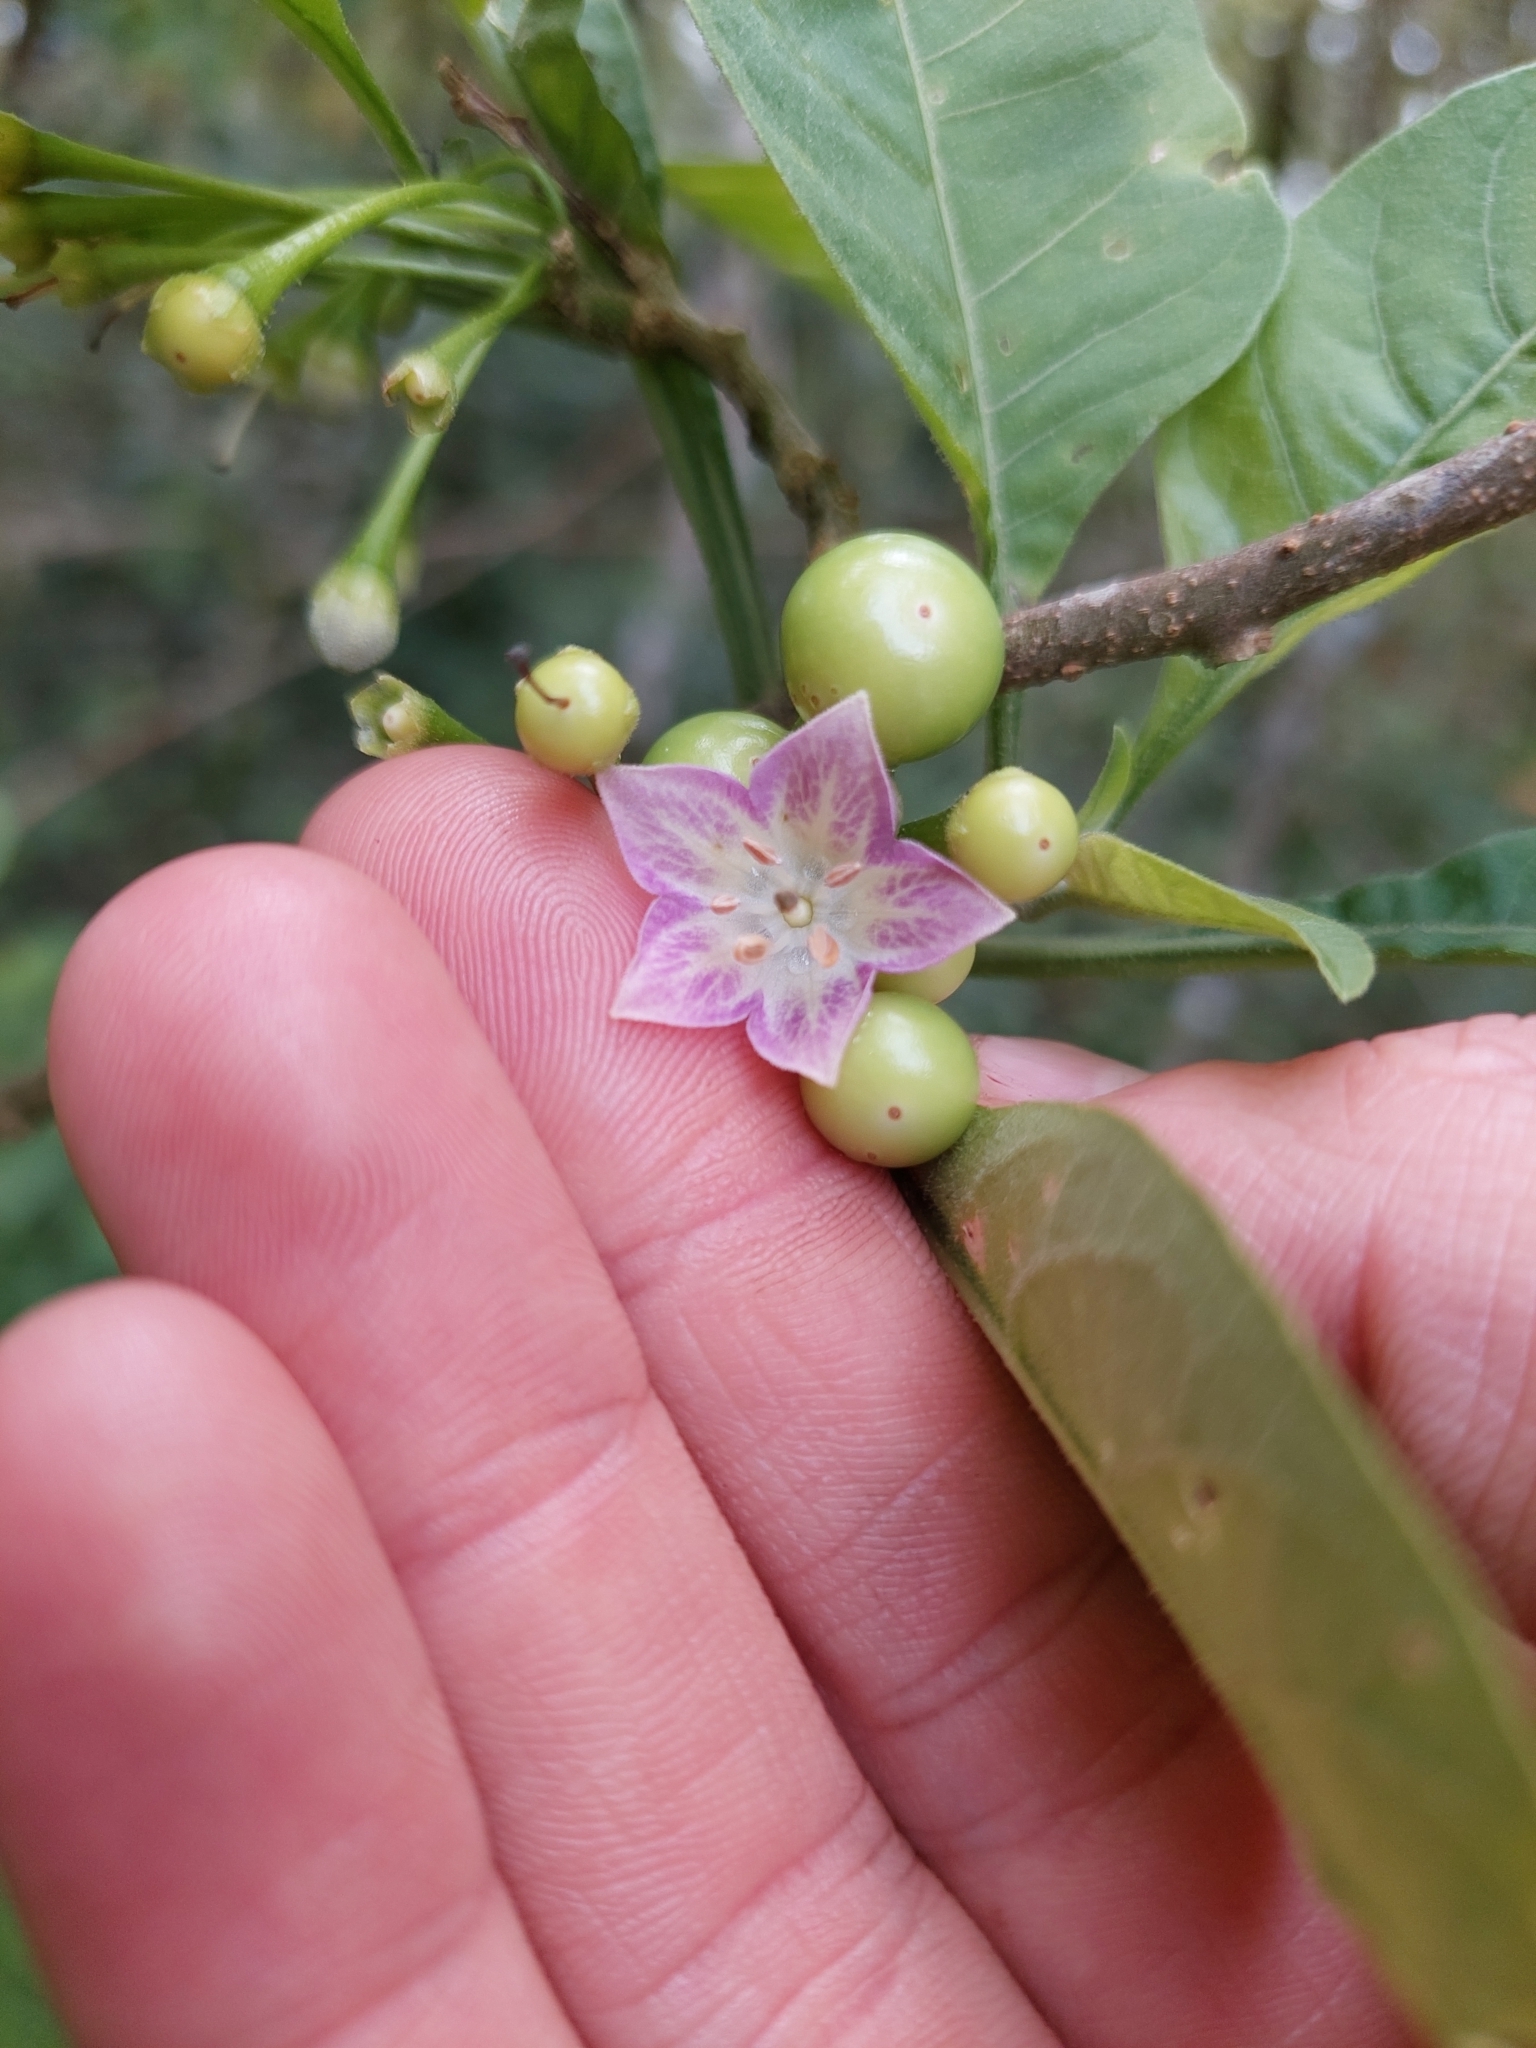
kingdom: Plantae
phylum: Tracheophyta
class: Magnoliopsida
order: Solanales
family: Solanaceae
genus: Vassobia
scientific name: Vassobia breviflora
